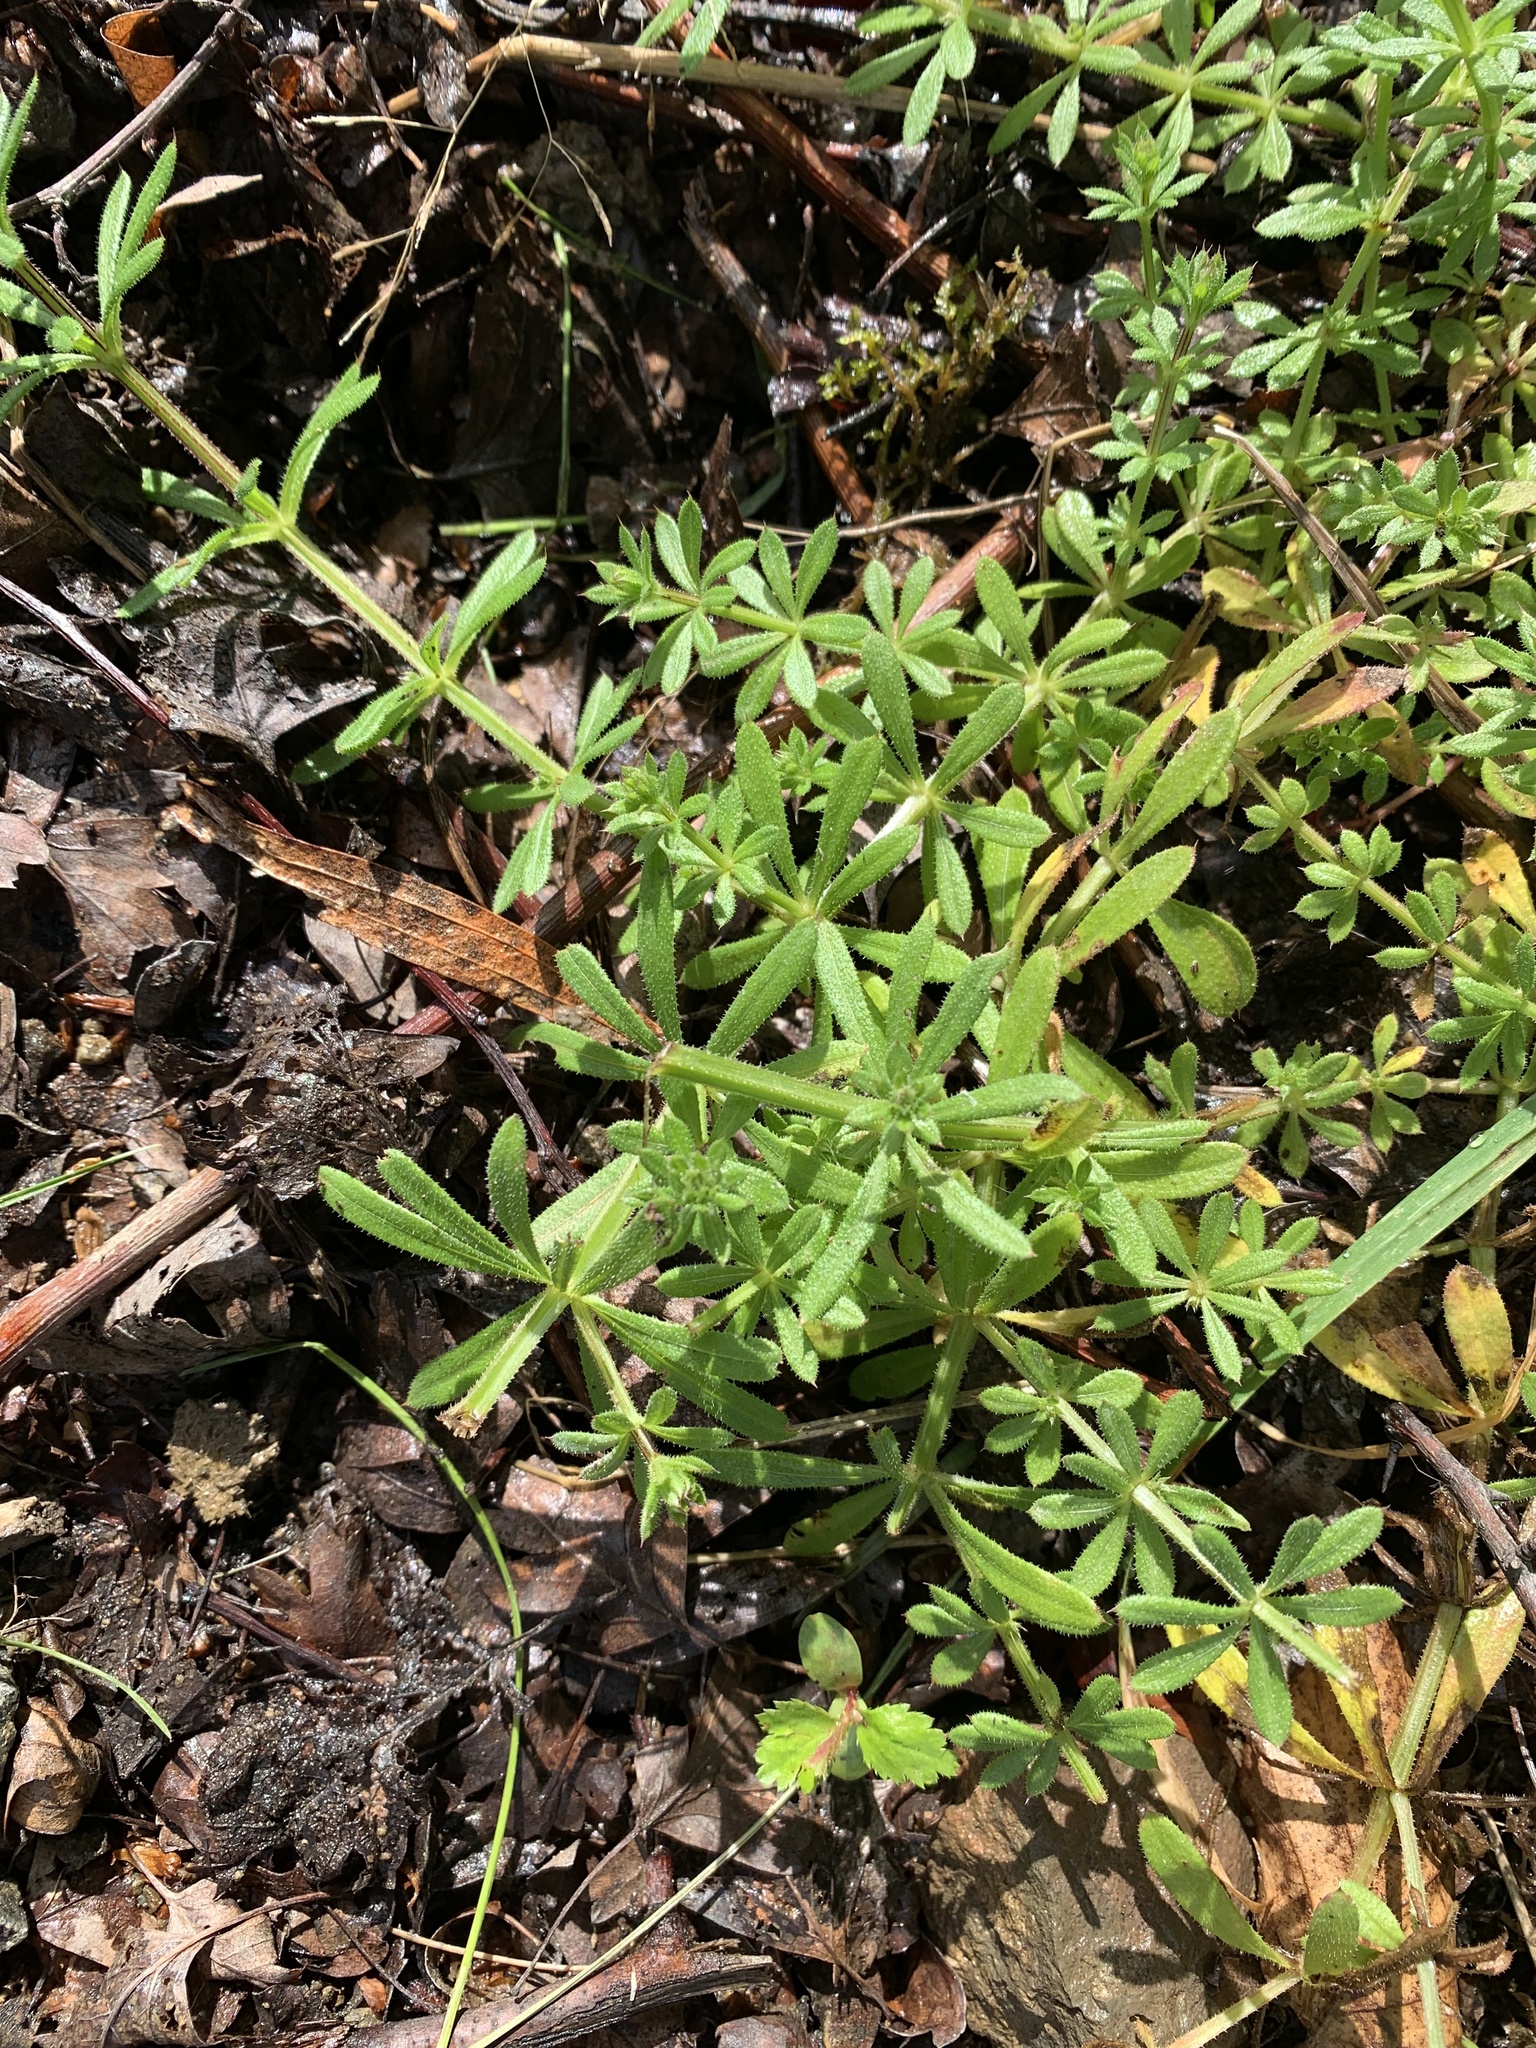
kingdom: Plantae
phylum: Tracheophyta
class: Magnoliopsida
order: Gentianales
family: Rubiaceae
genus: Galium
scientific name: Galium aparine
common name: Cleavers
